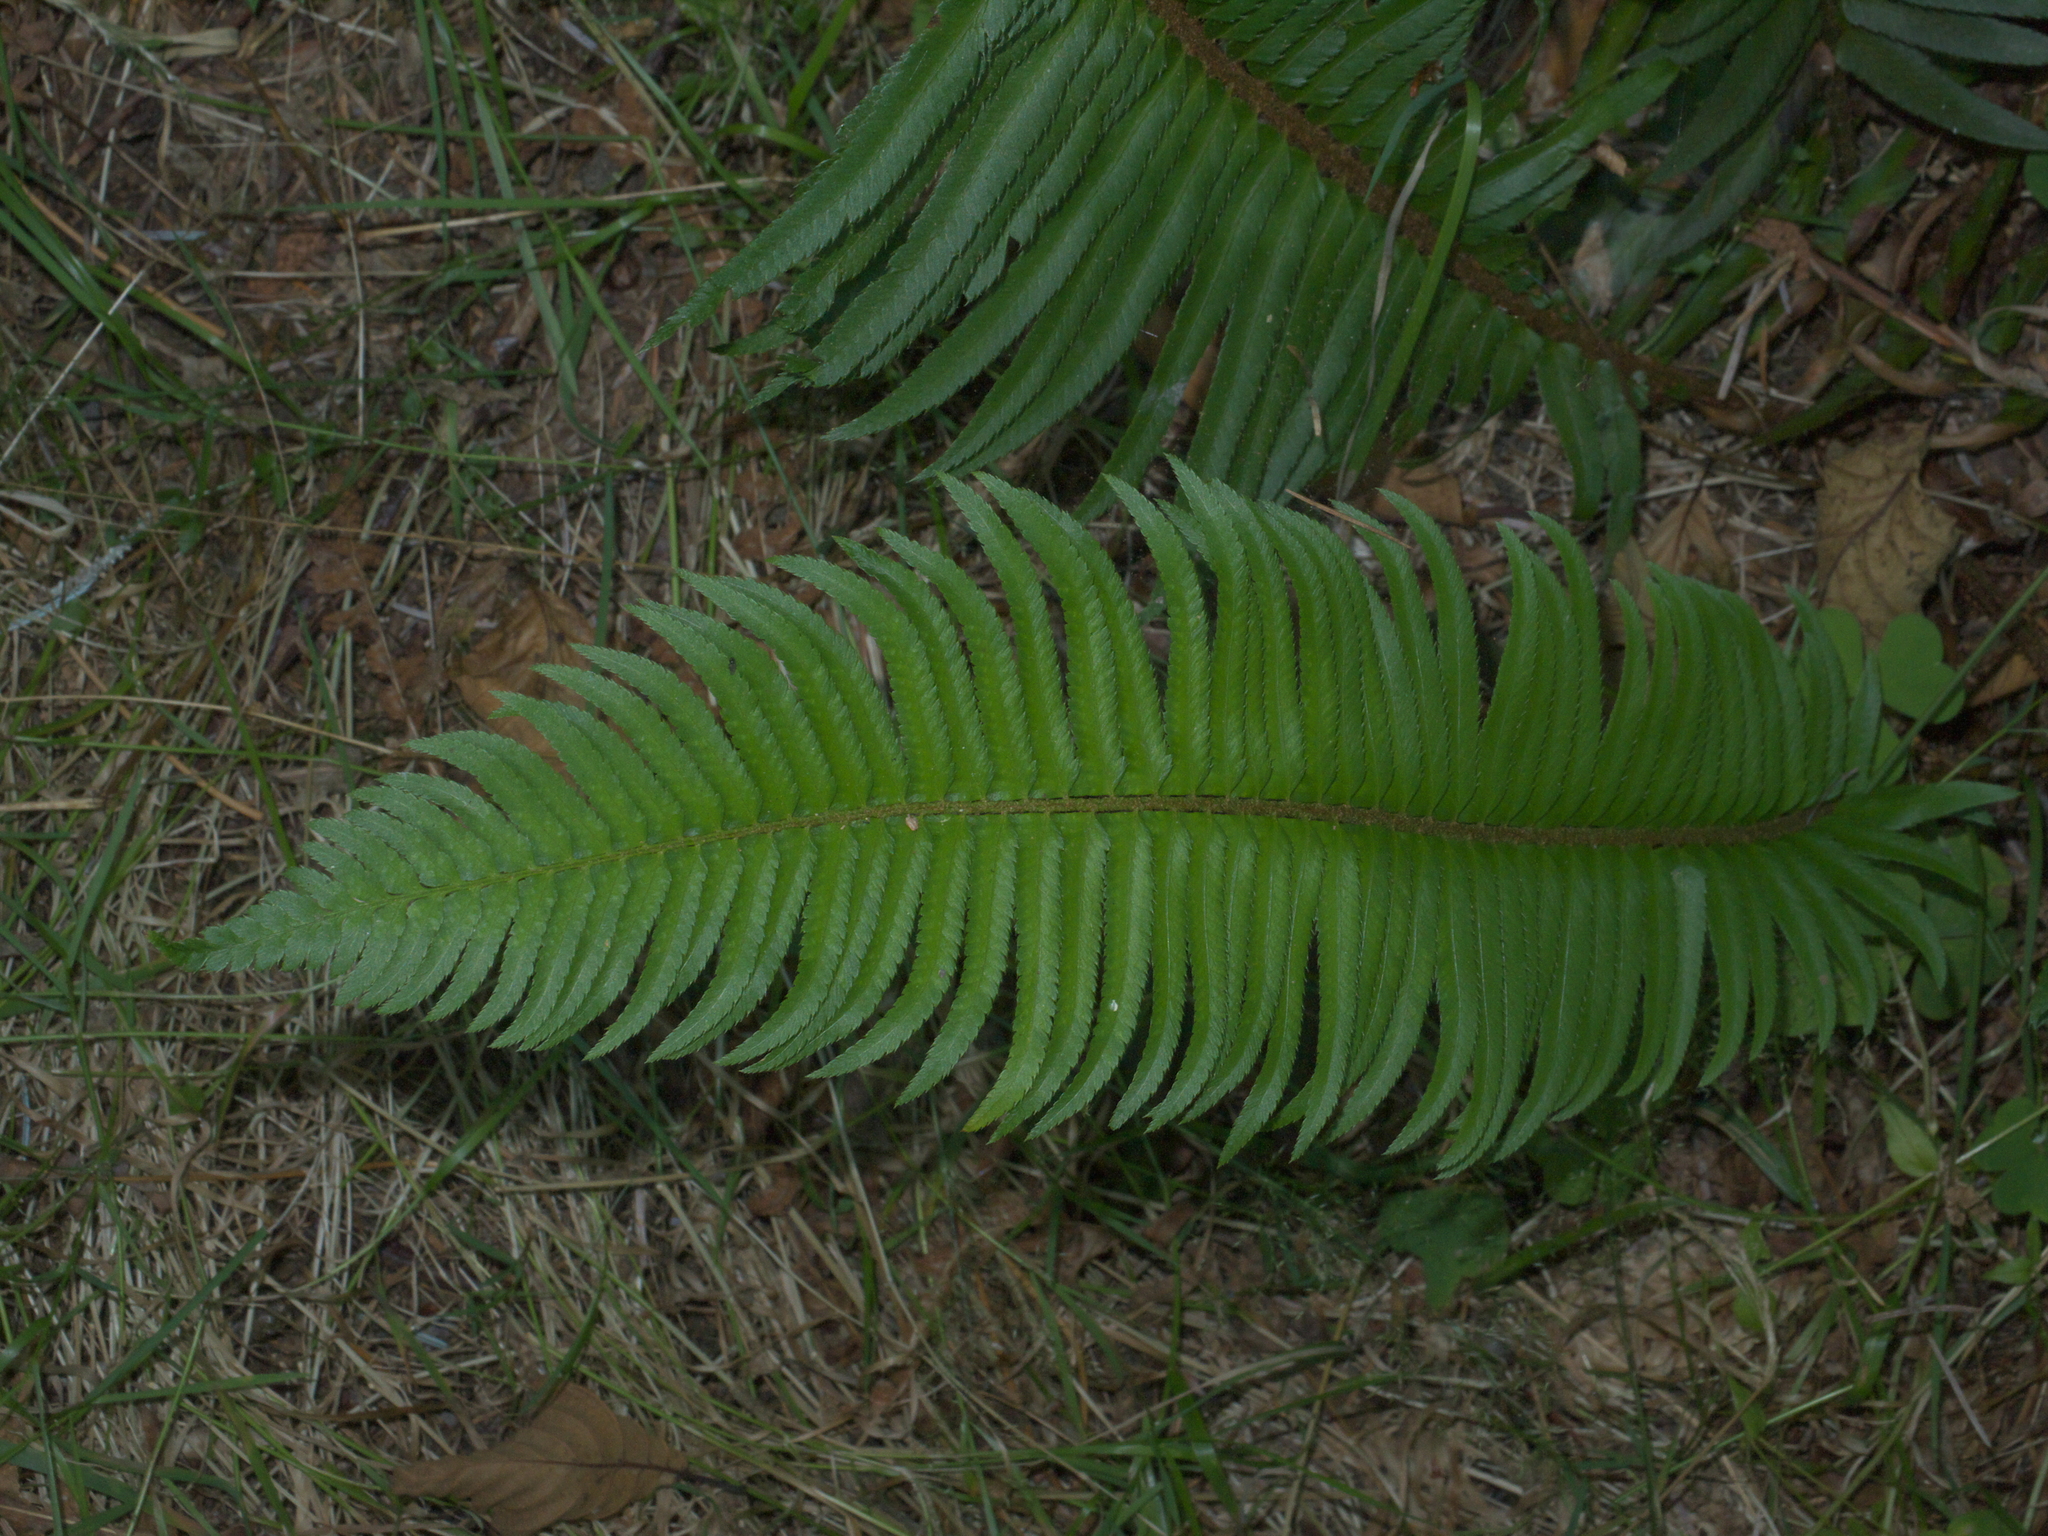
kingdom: Plantae
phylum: Tracheophyta
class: Polypodiopsida
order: Polypodiales
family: Dryopteridaceae
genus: Polystichum
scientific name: Polystichum munitum
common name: Western sword-fern
